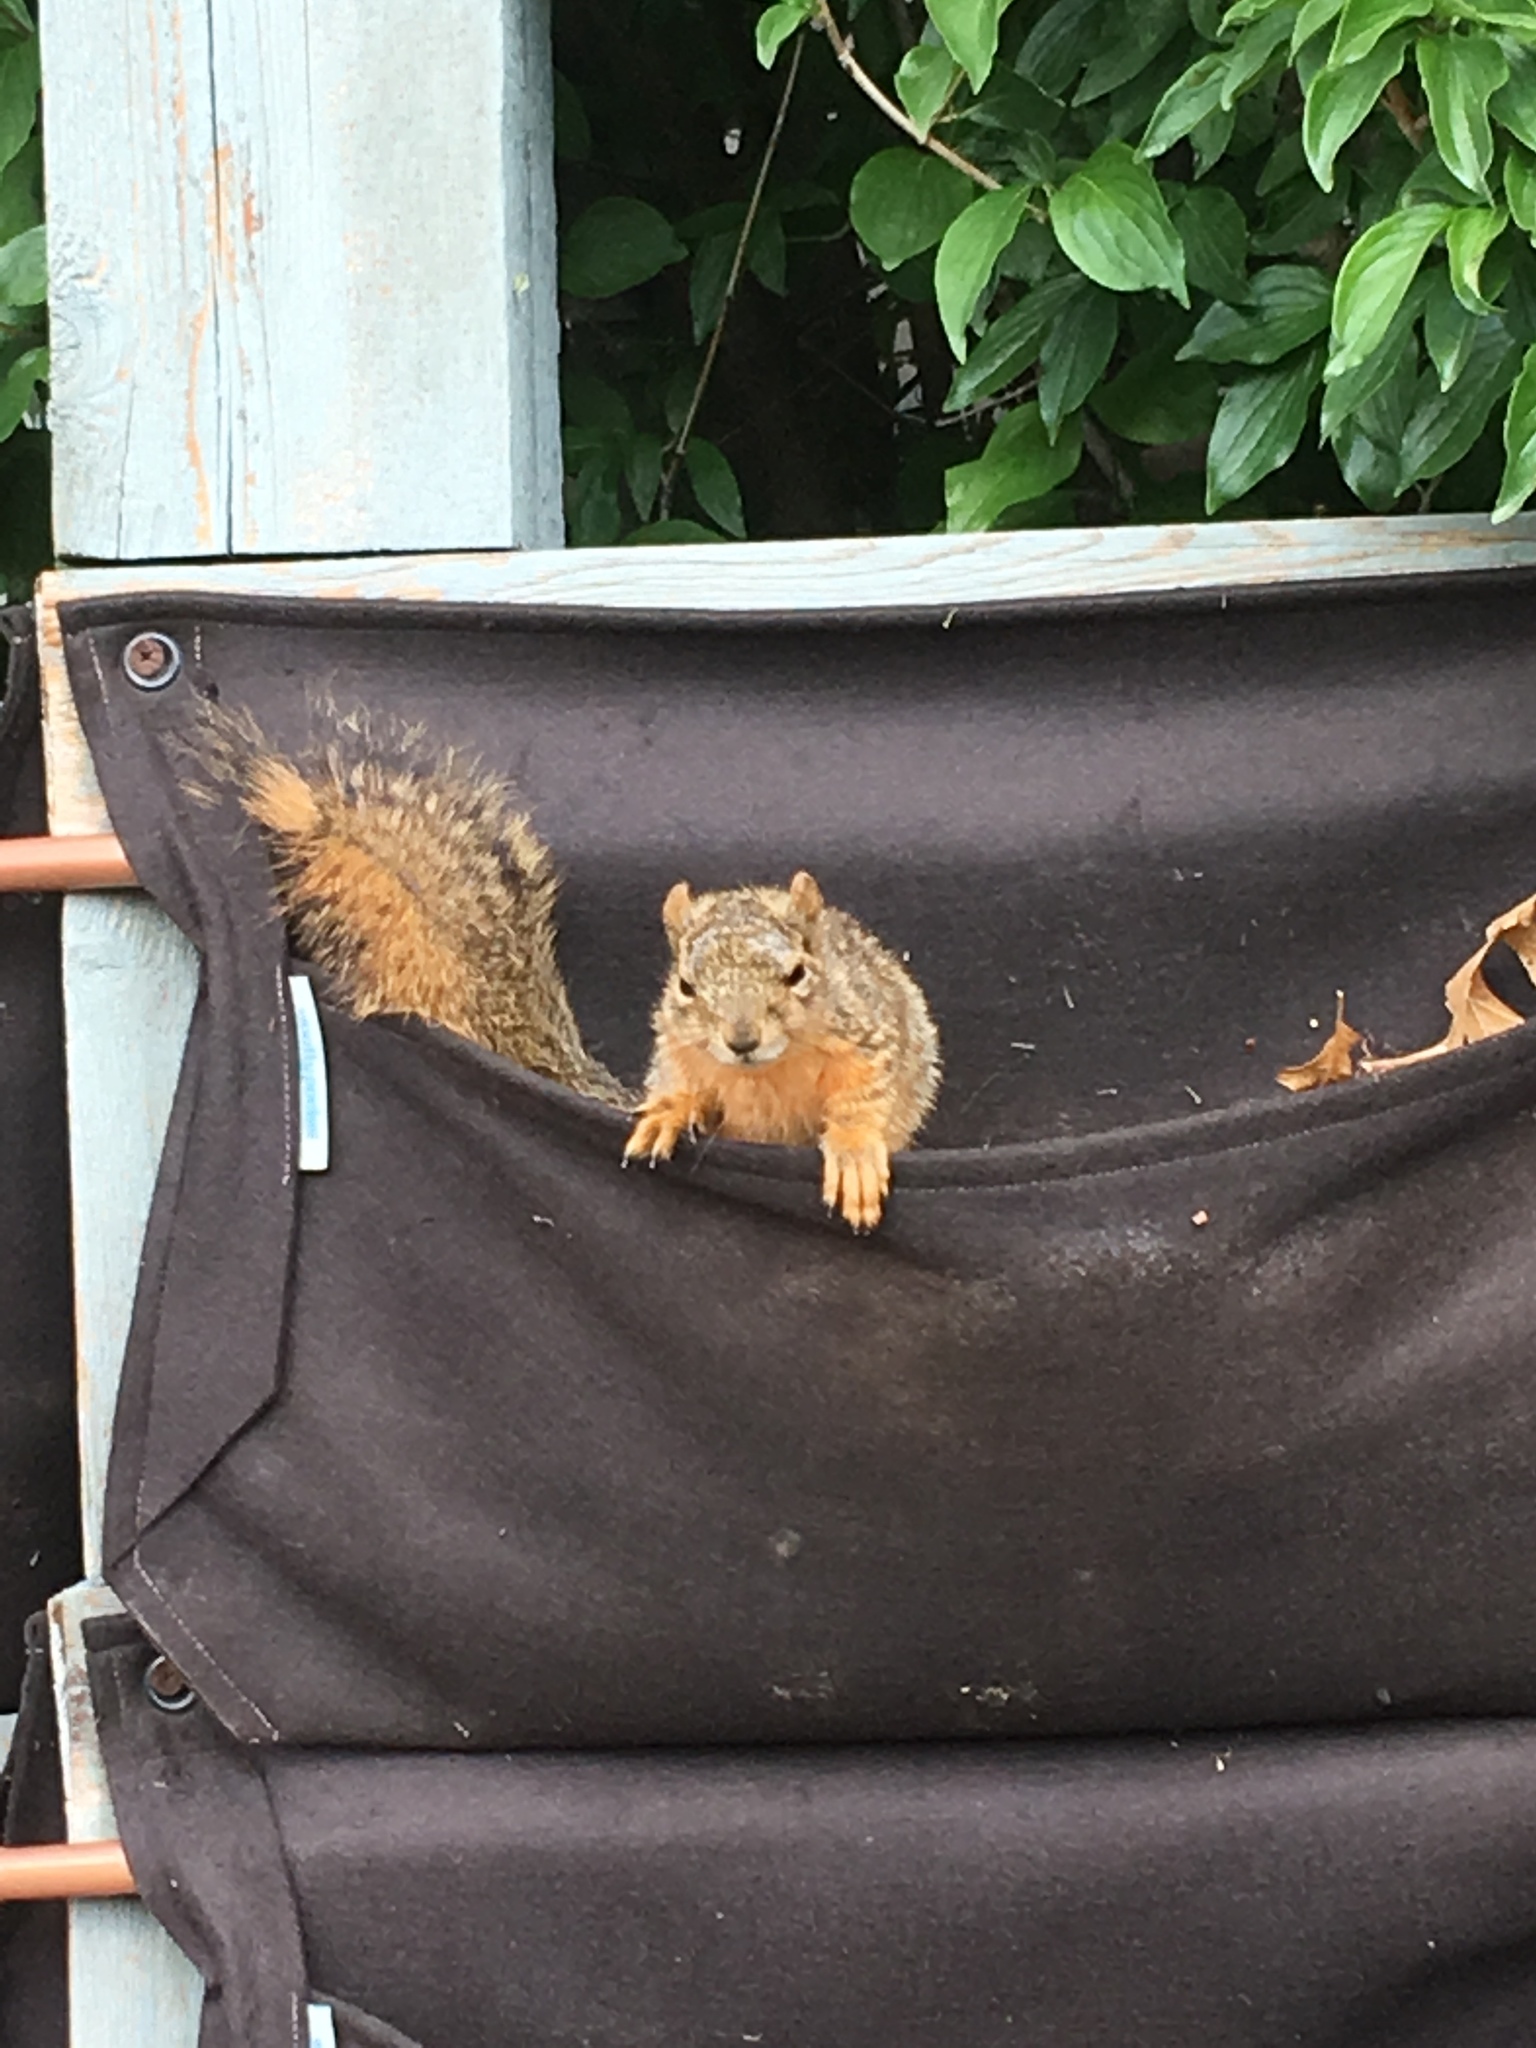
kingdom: Animalia
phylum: Chordata
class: Mammalia
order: Rodentia
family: Sciuridae
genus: Sciurus
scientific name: Sciurus niger
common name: Fox squirrel
